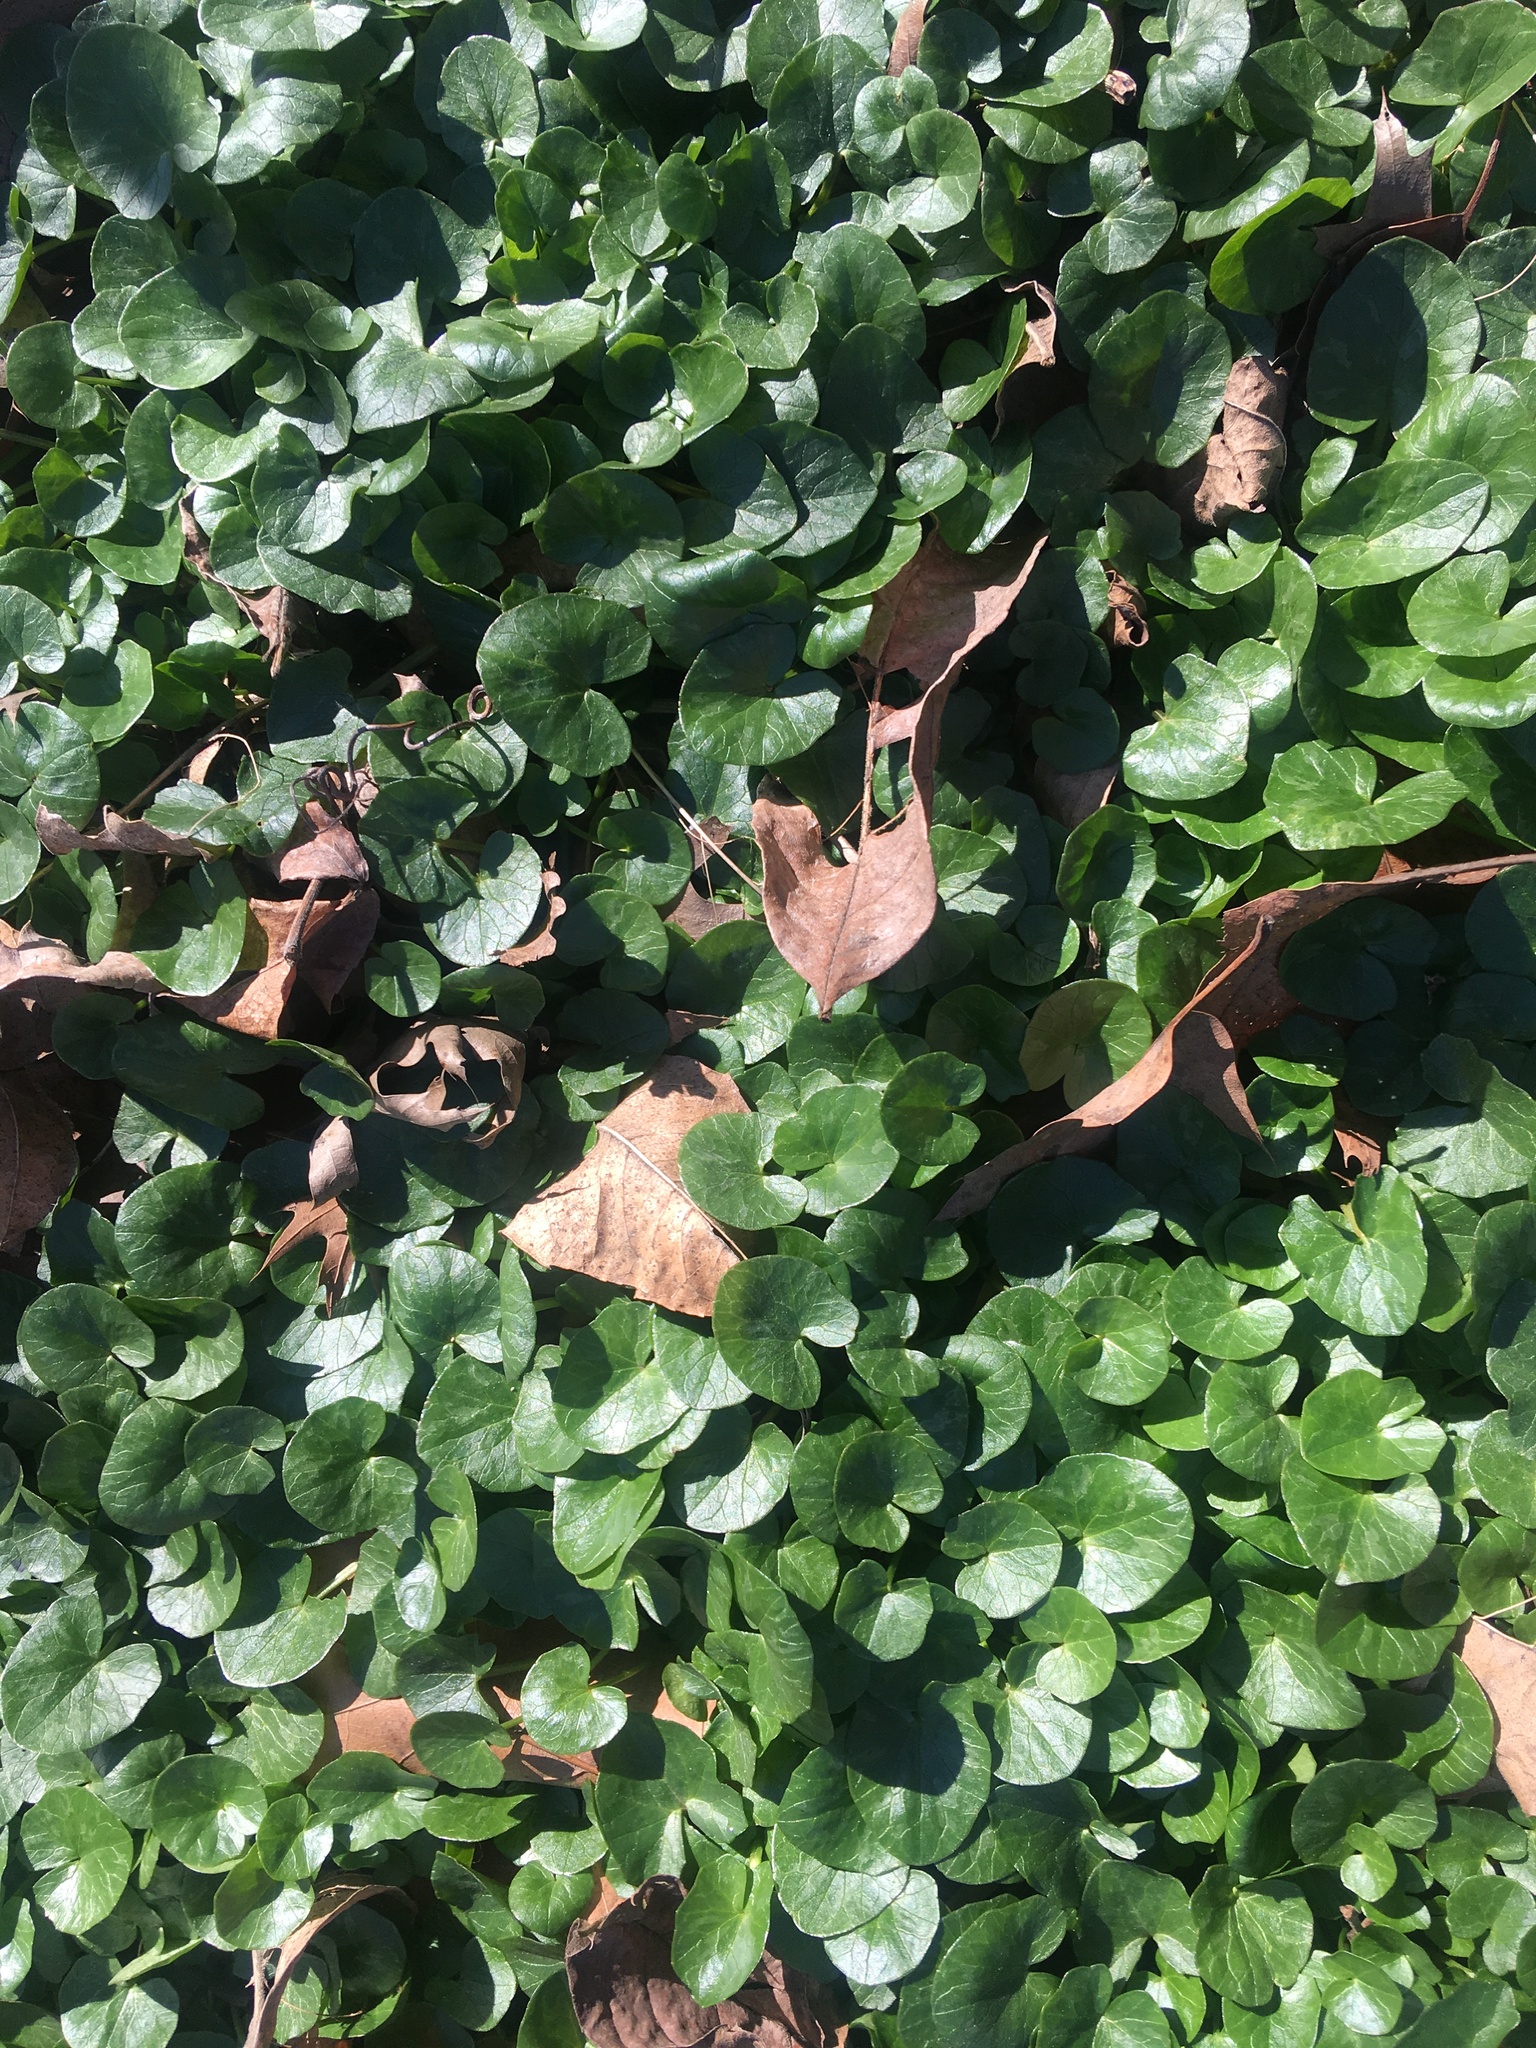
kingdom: Plantae
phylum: Tracheophyta
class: Magnoliopsida
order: Ranunculales
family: Ranunculaceae
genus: Ficaria
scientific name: Ficaria verna
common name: Lesser celandine
